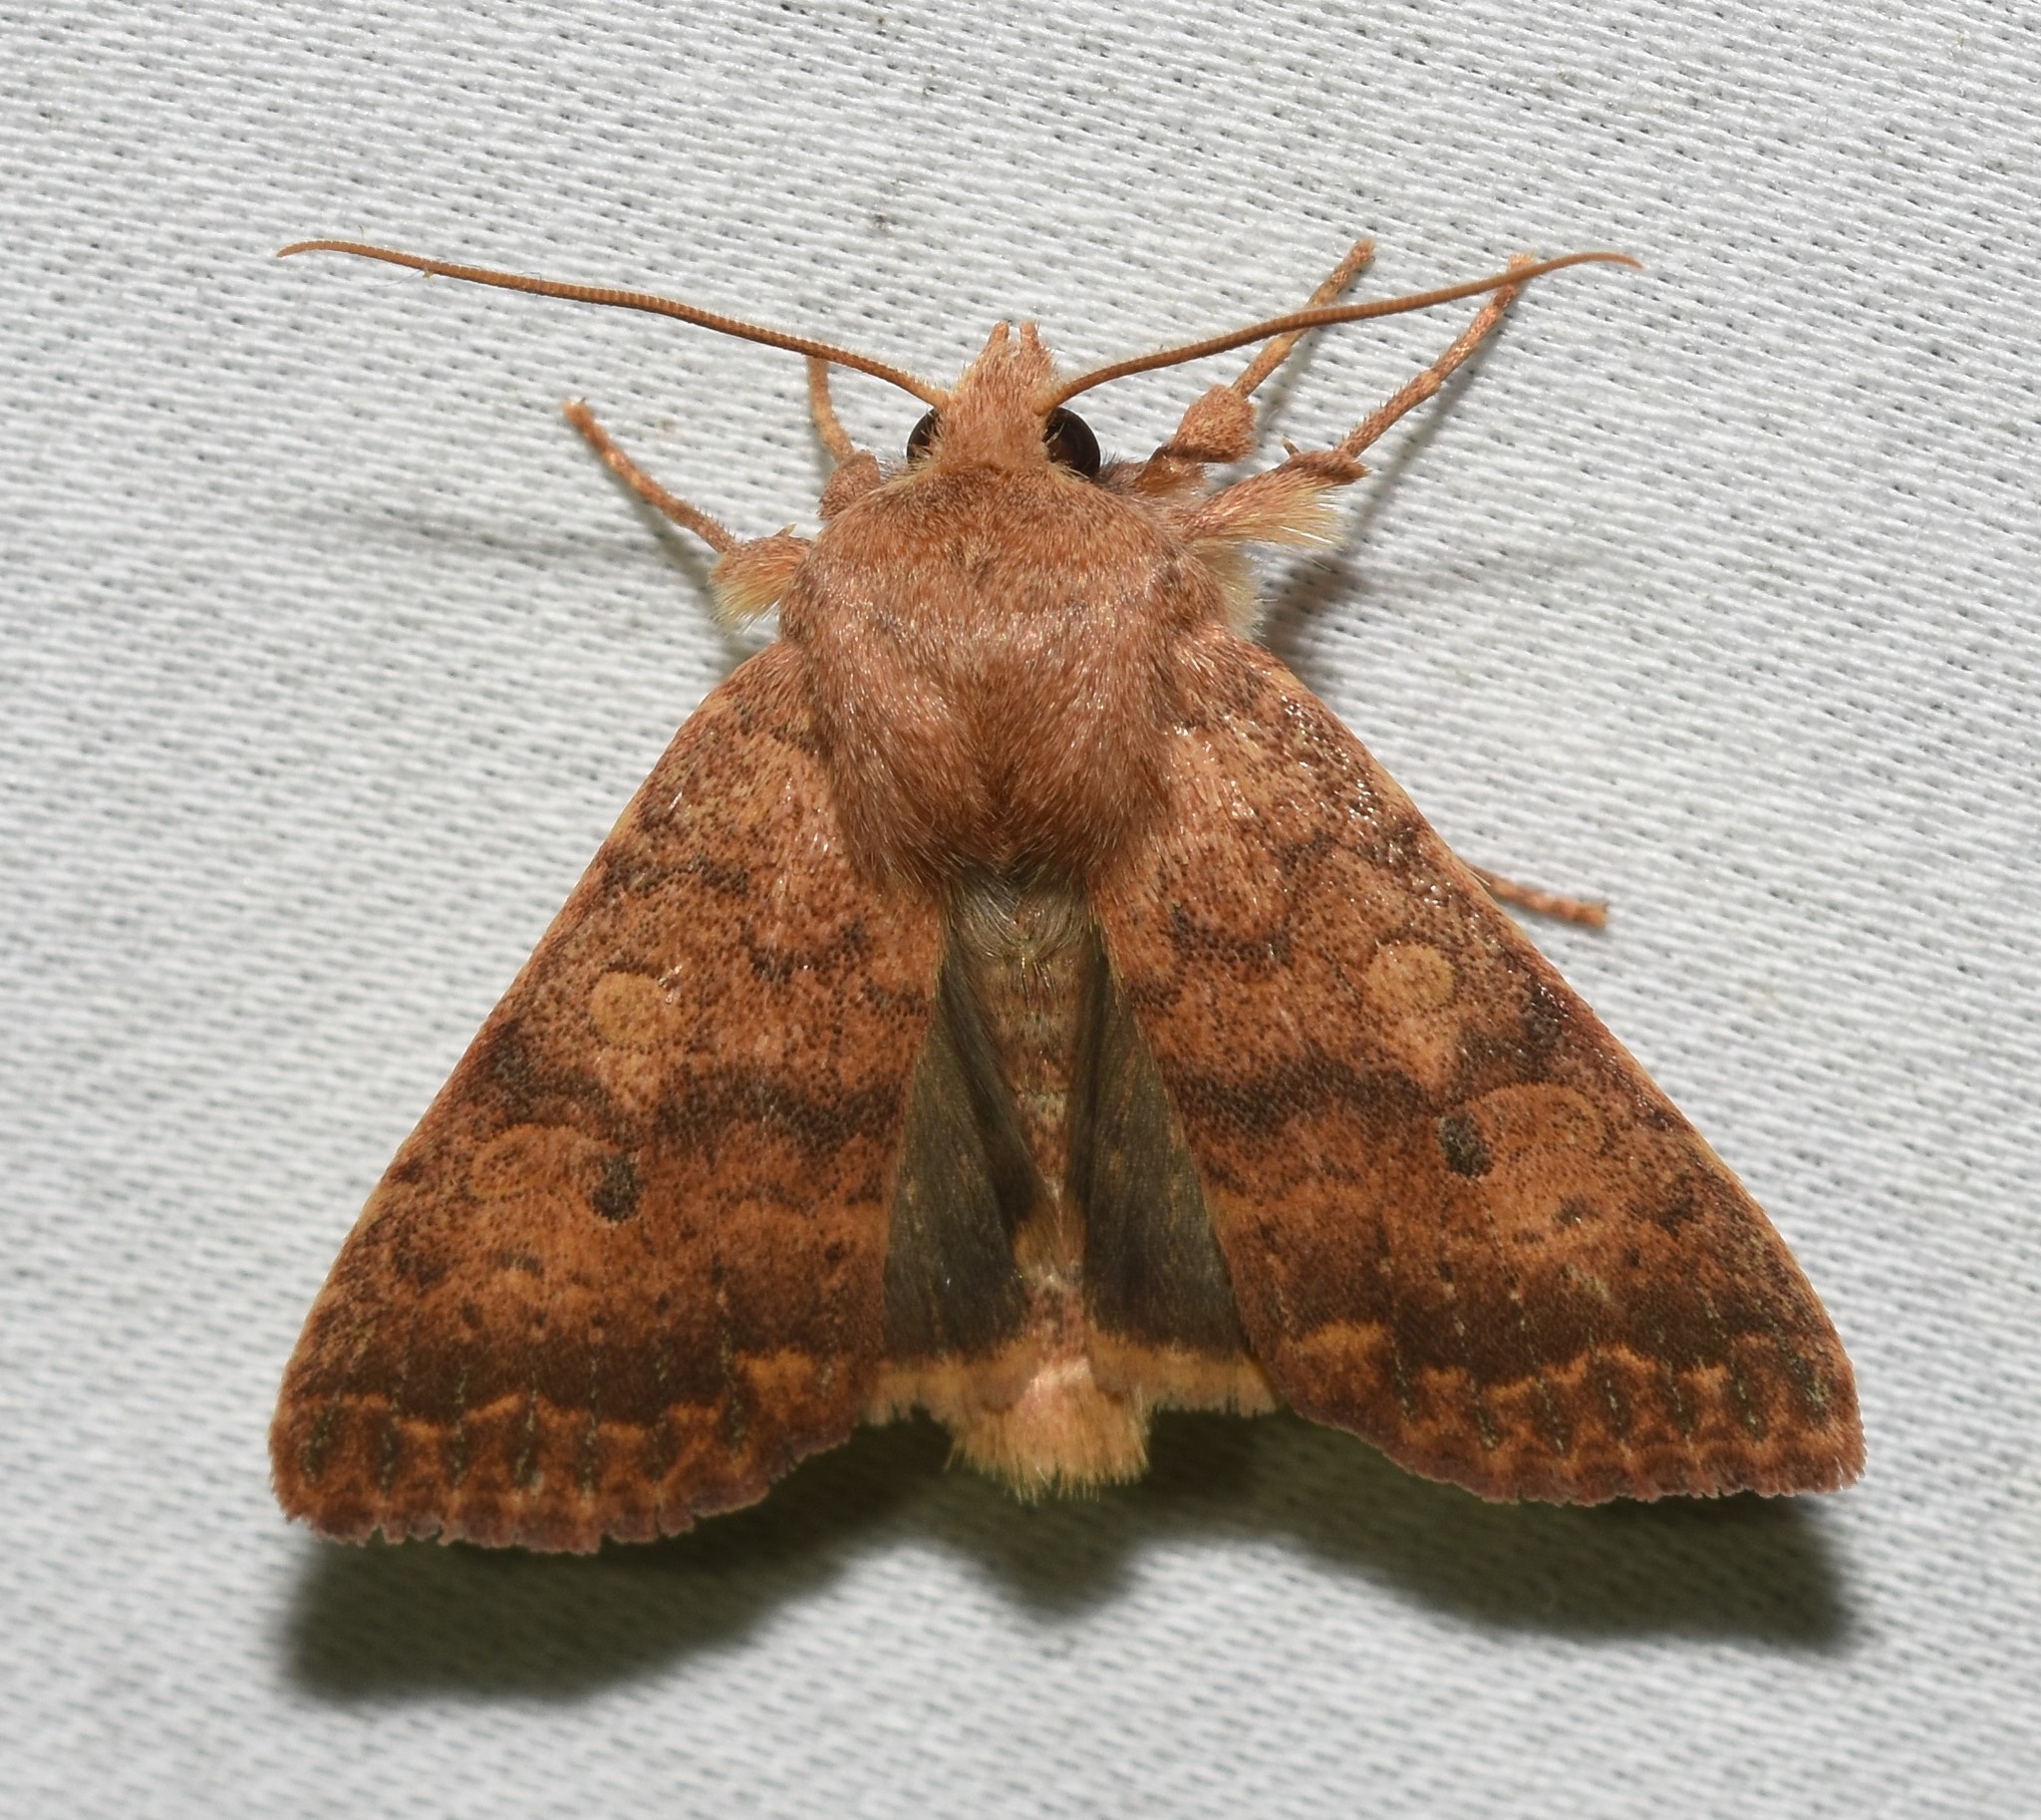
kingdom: Animalia
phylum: Arthropoda
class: Insecta
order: Lepidoptera
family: Noctuidae
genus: Agrochola
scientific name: Agrochola bicolorago
